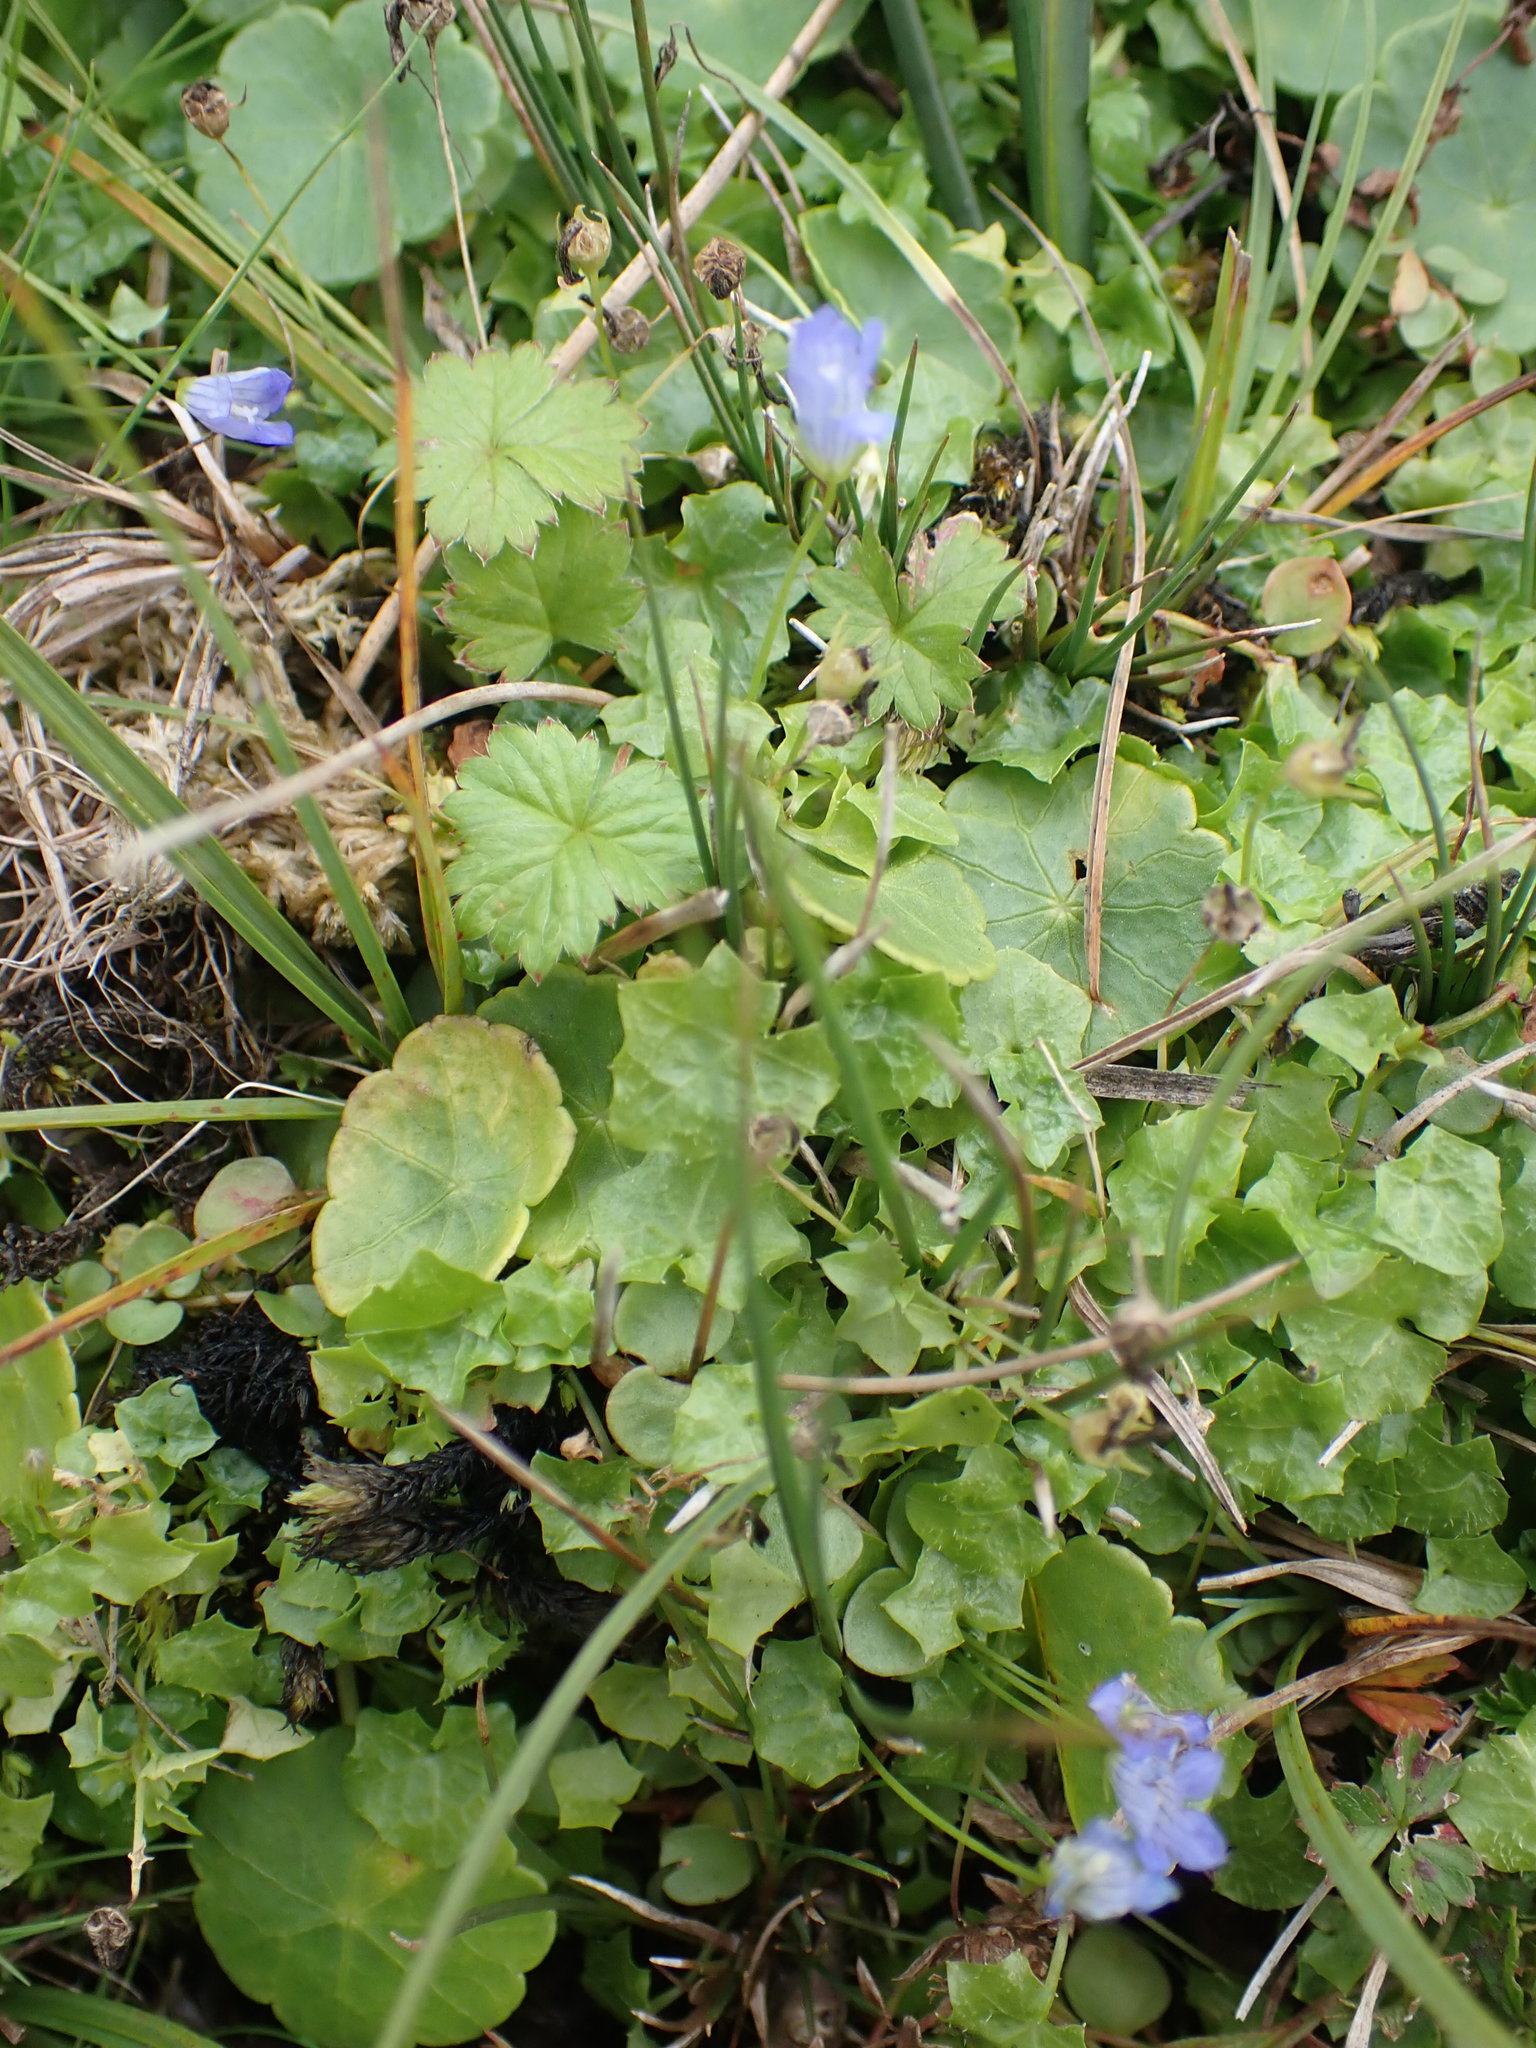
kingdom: Plantae
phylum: Tracheophyta
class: Magnoliopsida
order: Asterales
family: Campanulaceae
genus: Hesperocodon
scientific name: Hesperocodon hederaceus
